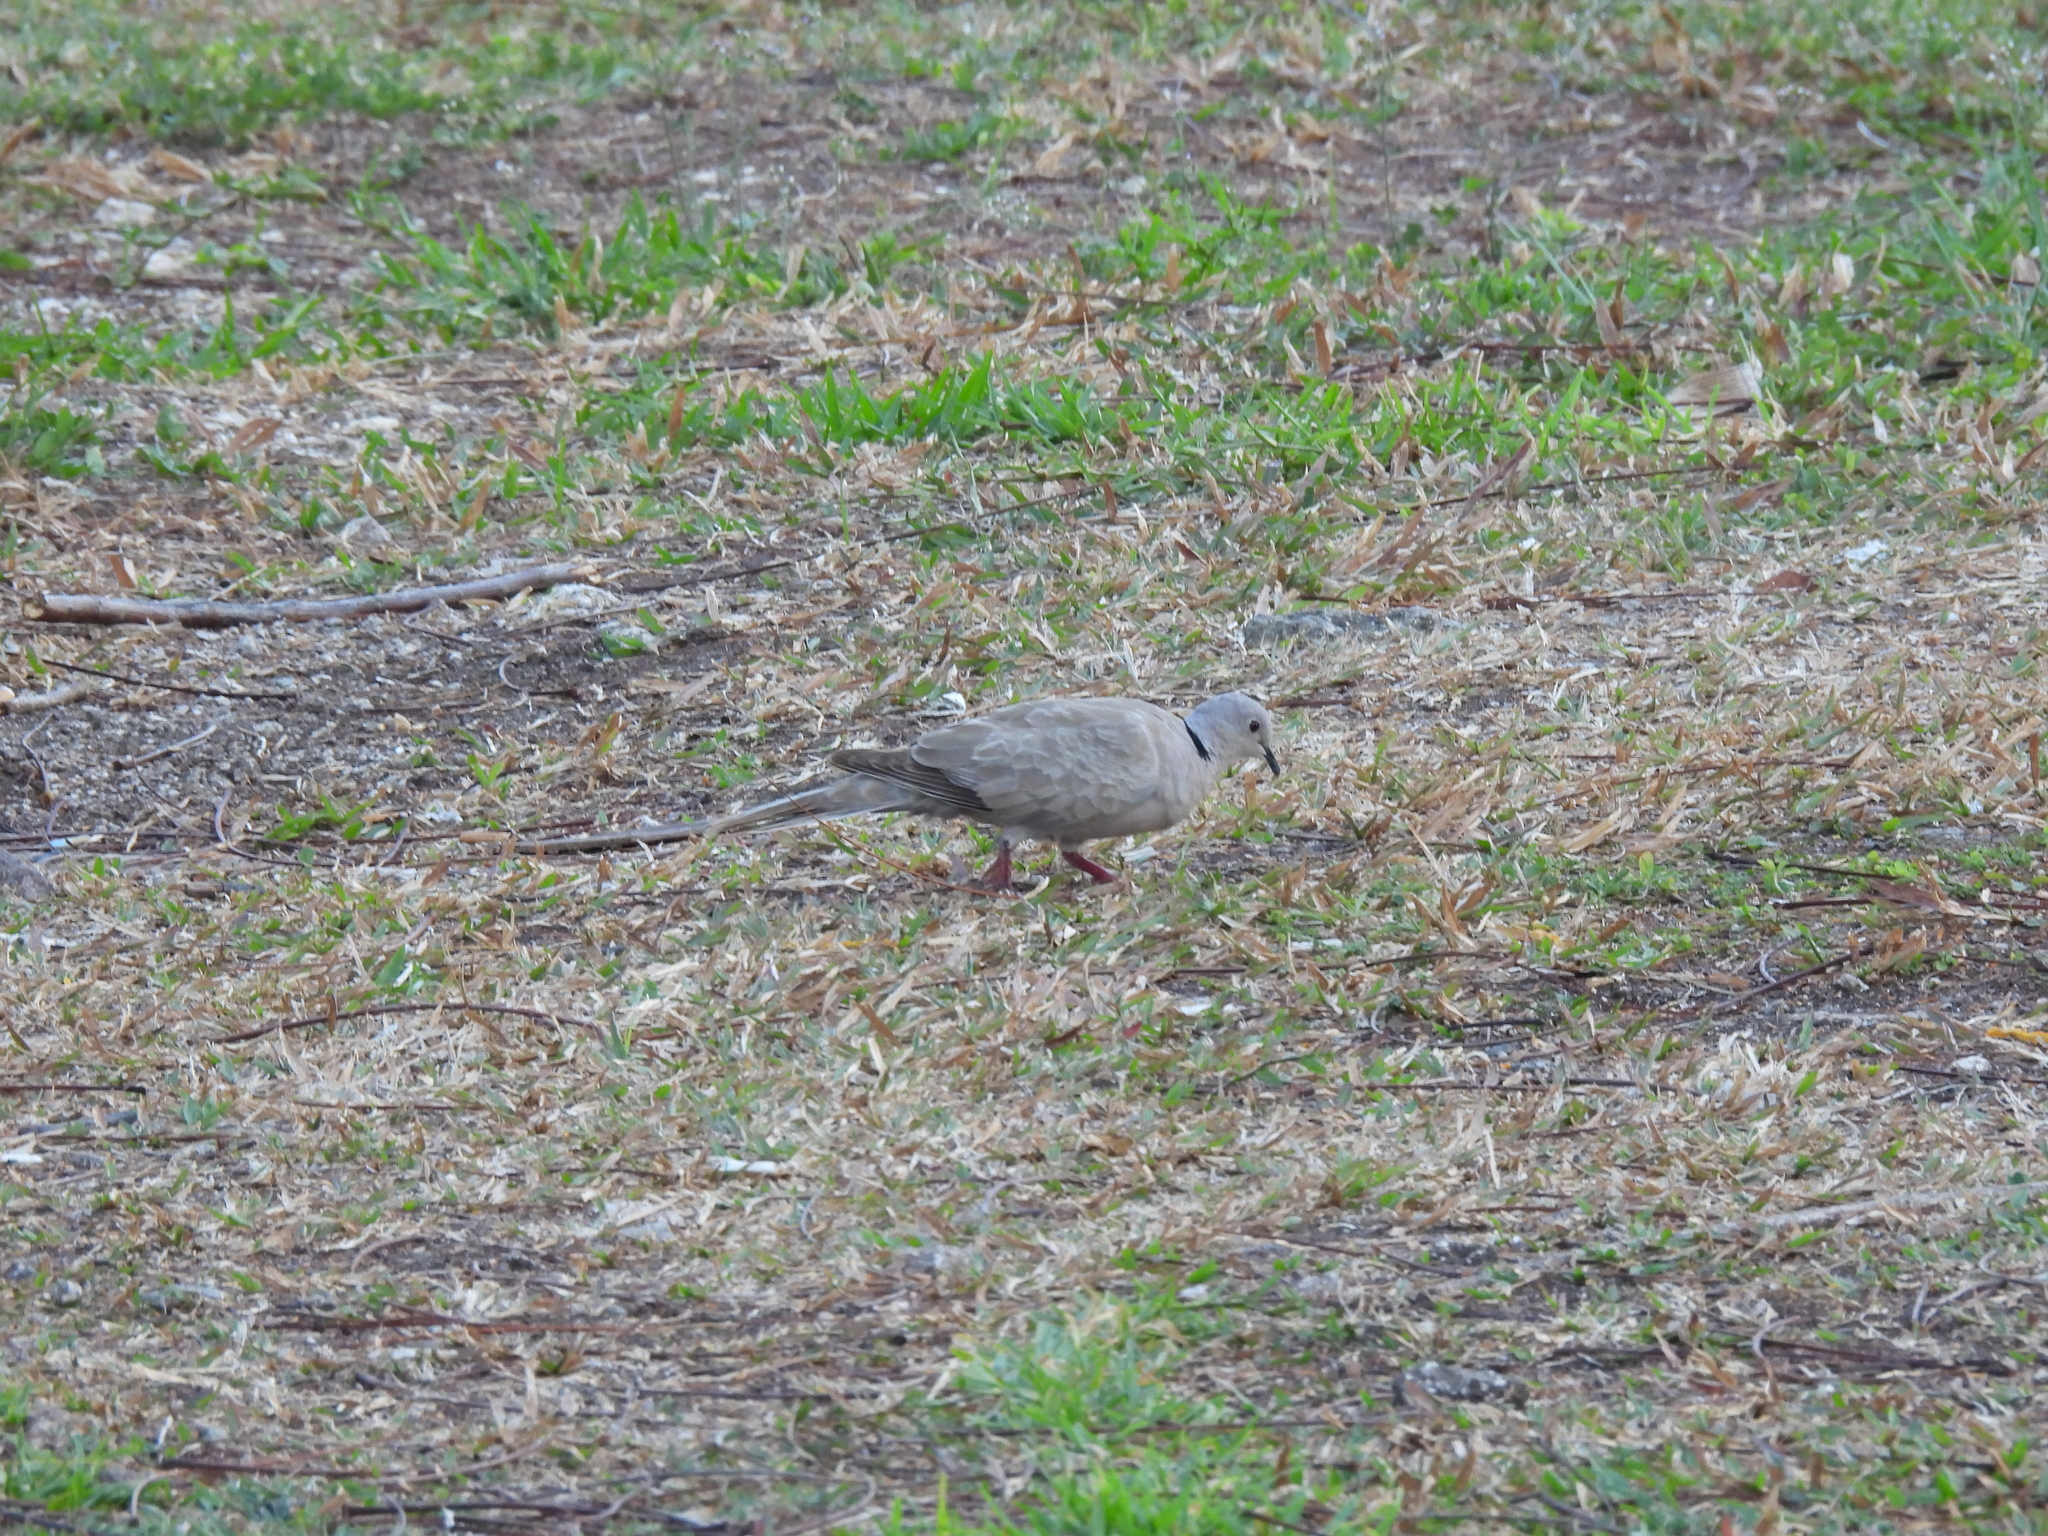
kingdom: Animalia
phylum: Chordata
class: Aves
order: Columbiformes
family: Columbidae
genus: Streptopelia
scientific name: Streptopelia decaocto
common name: Eurasian collared dove
